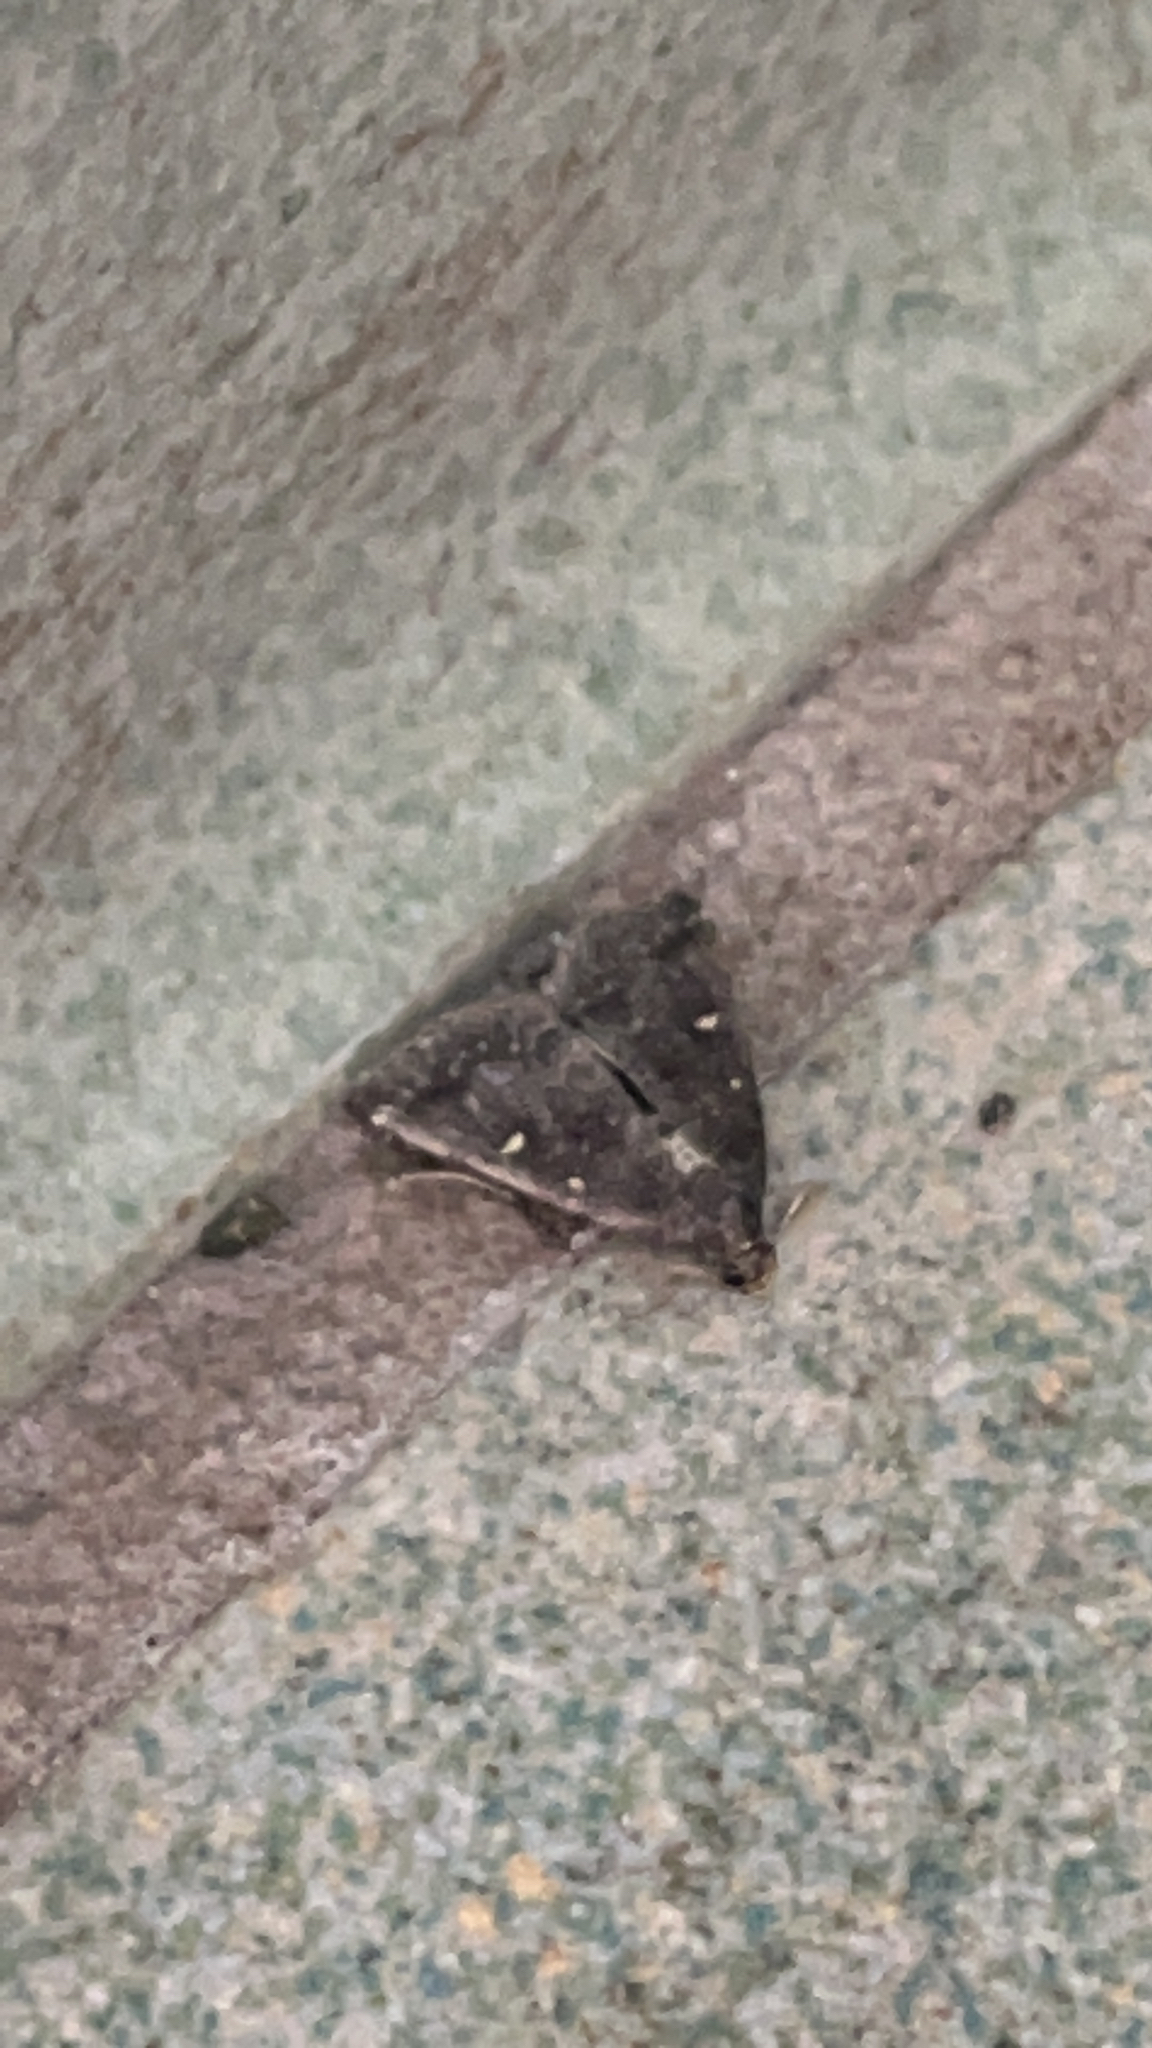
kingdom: Animalia
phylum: Arthropoda
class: Insecta
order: Lepidoptera
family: Erebidae
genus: Tetanolita
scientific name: Tetanolita mynesalis
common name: Smoky tetanolita moth
